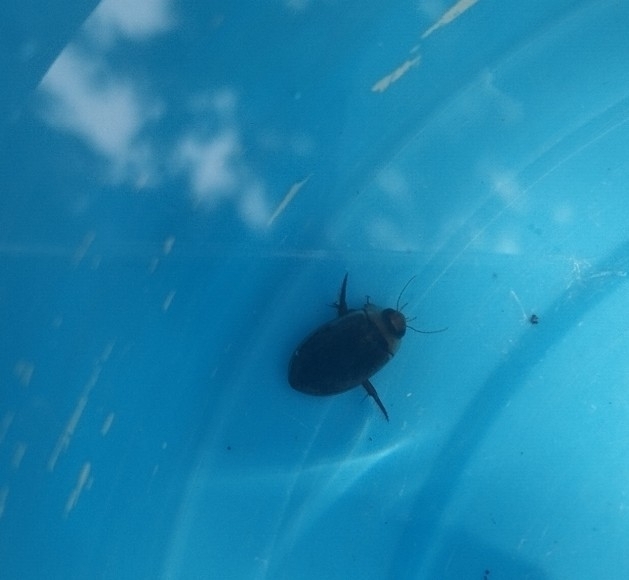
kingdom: Animalia
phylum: Arthropoda
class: Insecta
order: Coleoptera
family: Dytiscidae
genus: Hydaticus
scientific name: Hydaticus leander
